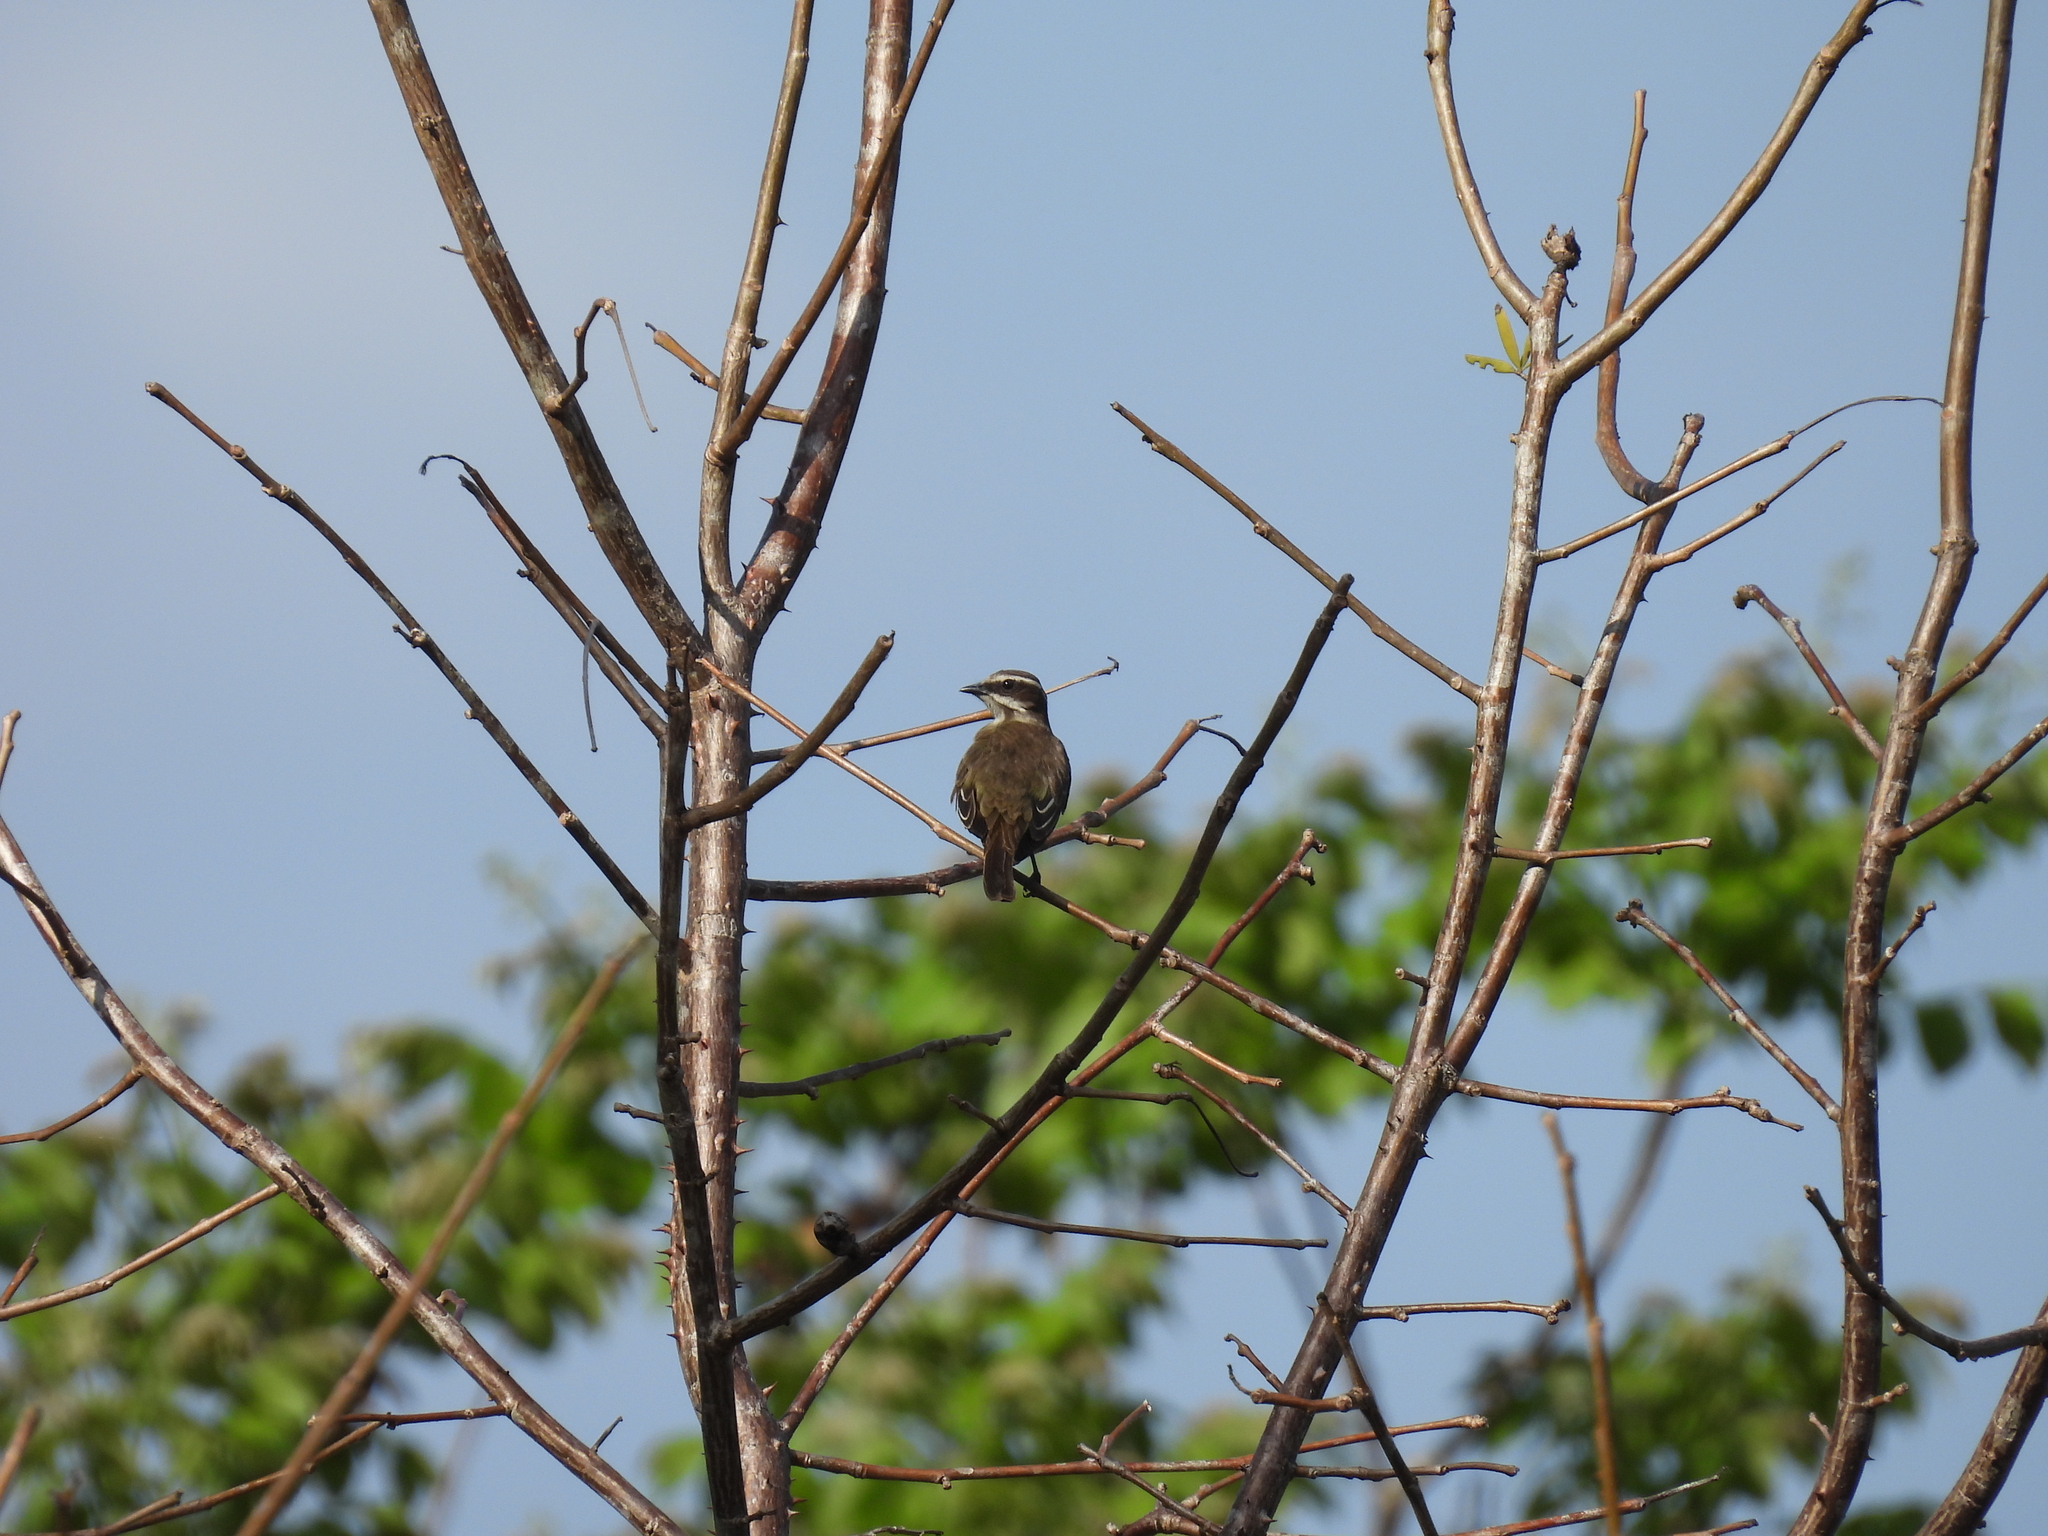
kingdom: Animalia
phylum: Chordata
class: Aves
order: Passeriformes
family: Tyrannidae
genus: Legatus
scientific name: Legatus leucophaius
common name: Piratic flycatcher
